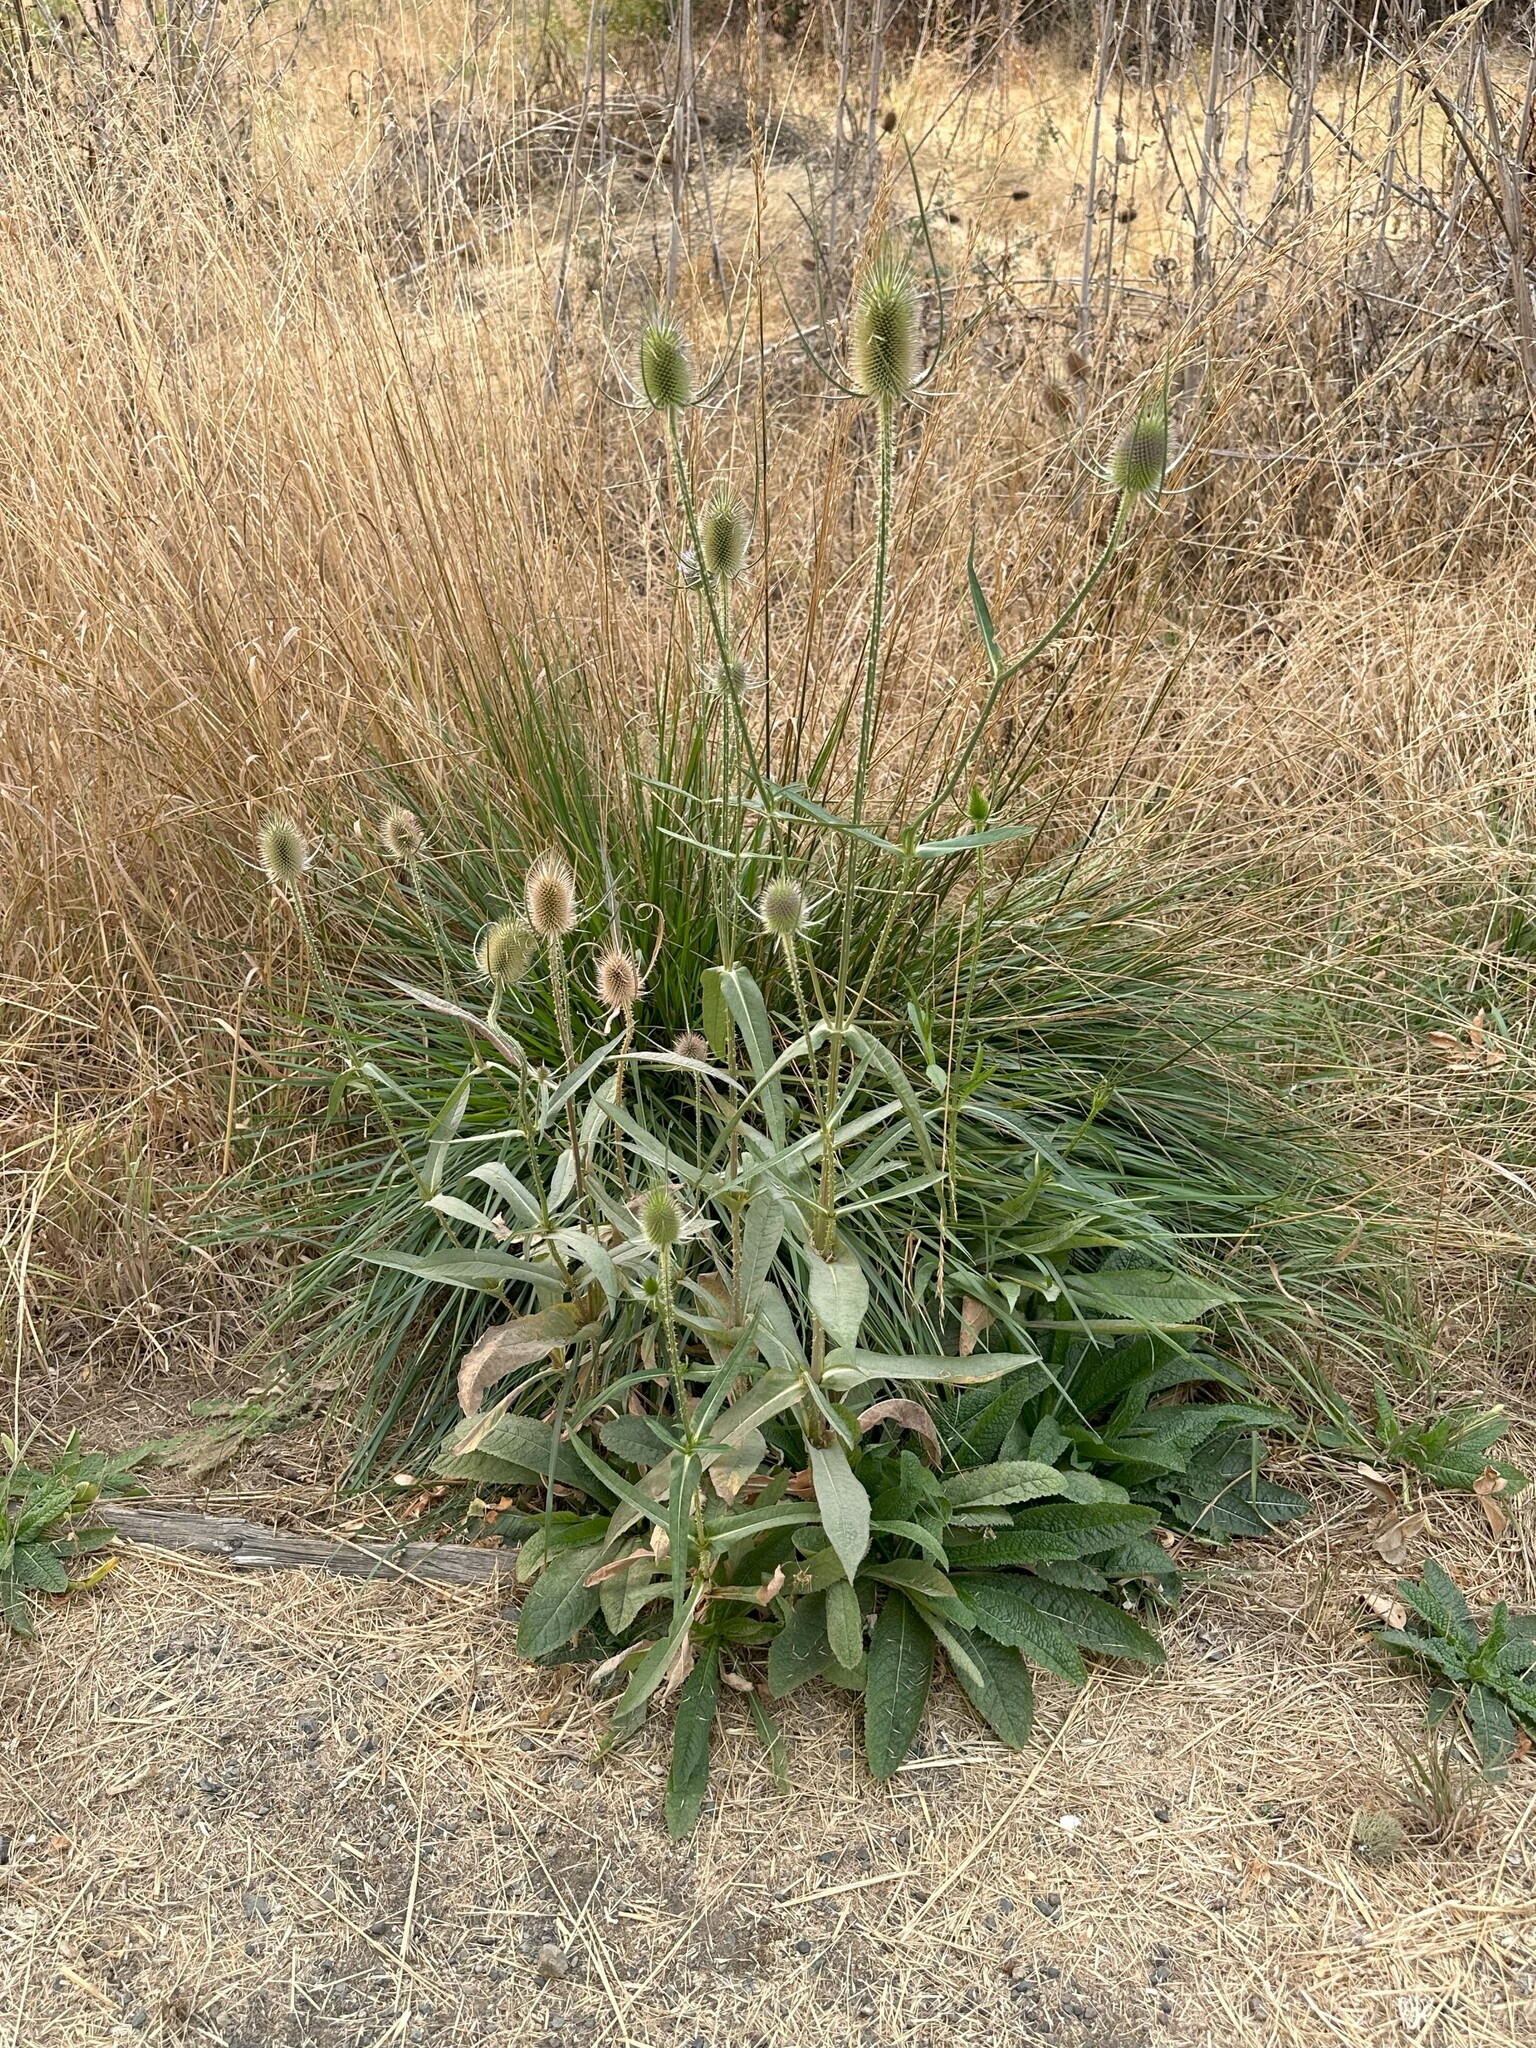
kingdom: Plantae
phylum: Tracheophyta
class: Magnoliopsida
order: Dipsacales
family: Caprifoliaceae
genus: Dipsacus
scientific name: Dipsacus fullonum
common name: Teasel
